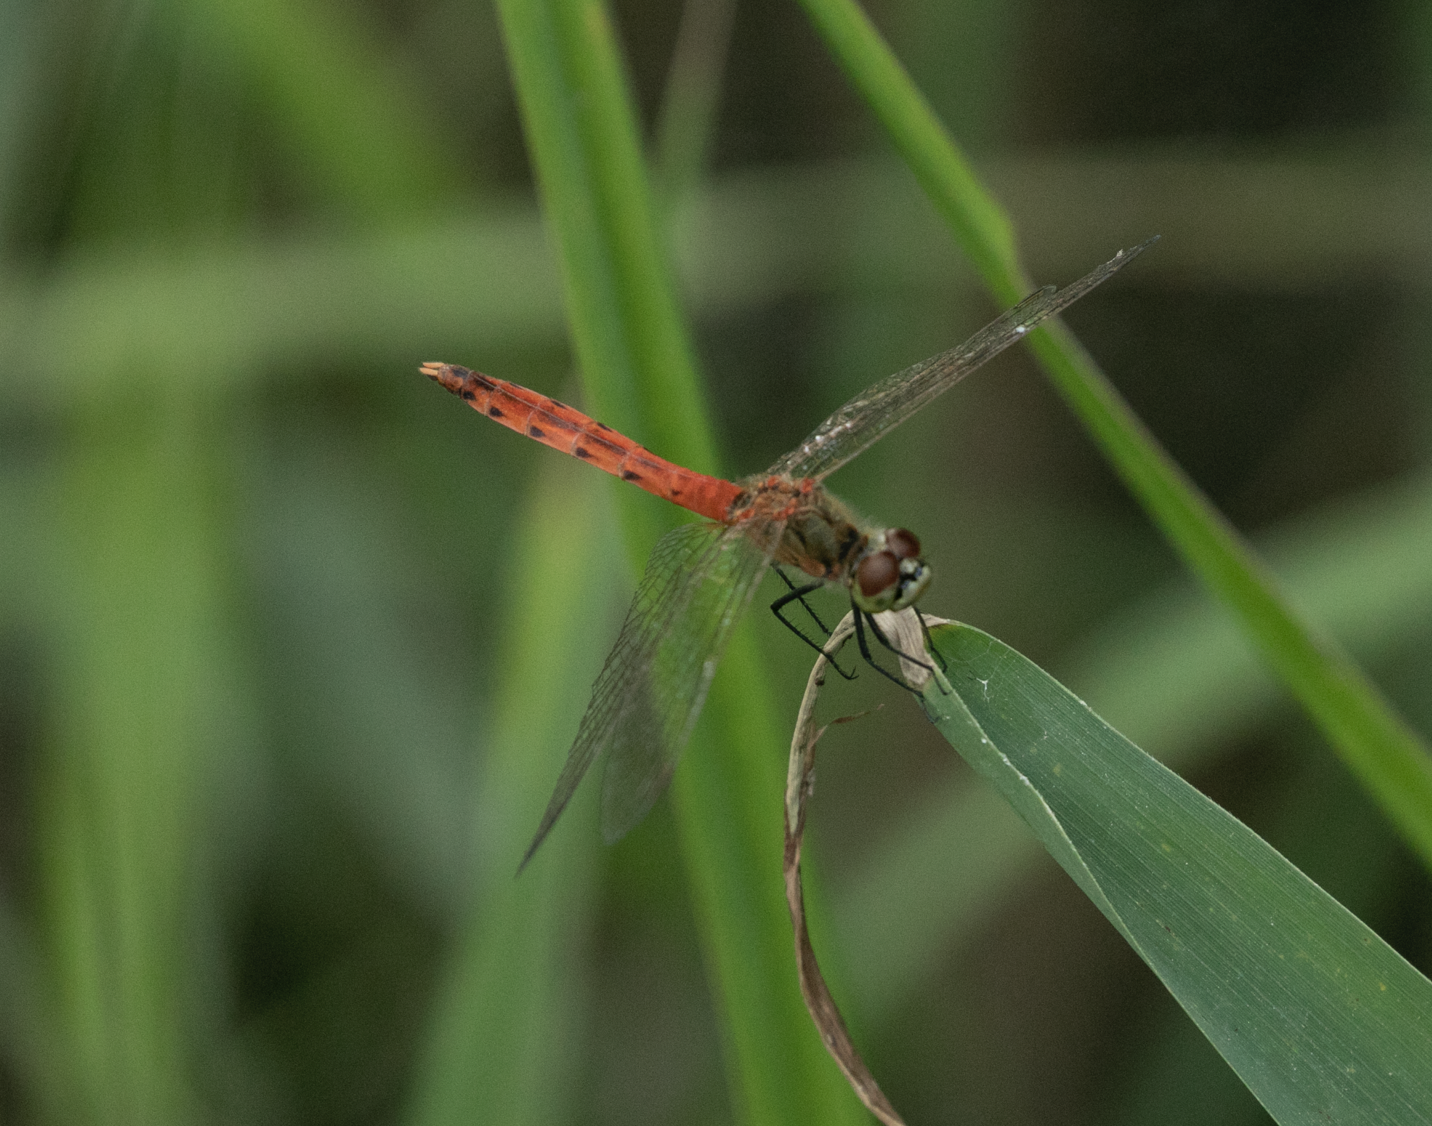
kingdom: Animalia
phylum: Arthropoda
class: Insecta
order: Odonata
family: Libellulidae
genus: Sympetrum
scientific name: Sympetrum depressiusculum
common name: Spotted darter
